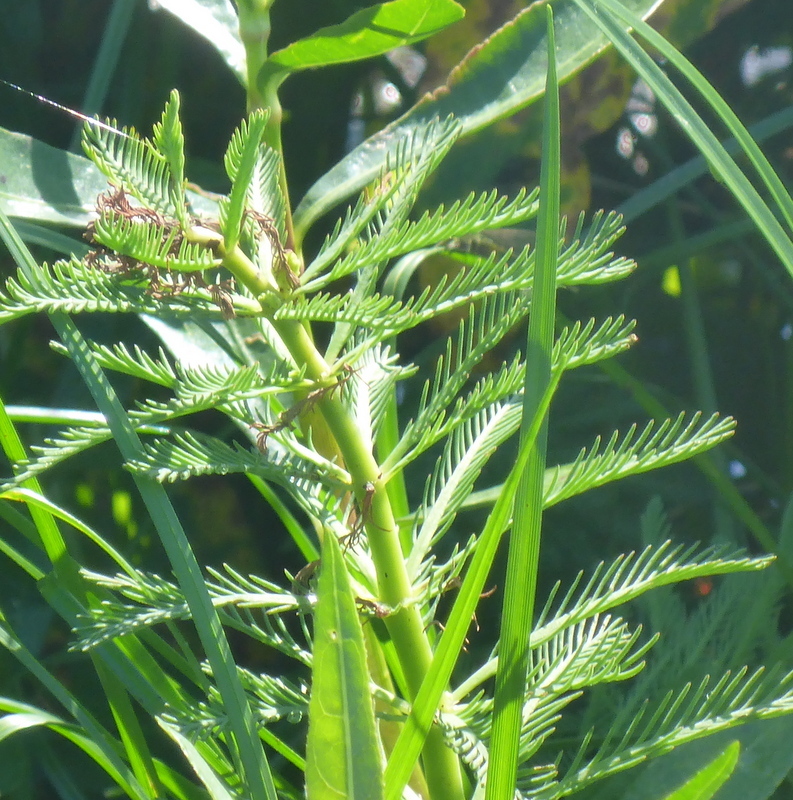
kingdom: Plantae
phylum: Tracheophyta
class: Magnoliopsida
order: Saxifragales
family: Haloragaceae
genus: Myriophyllum
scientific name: Myriophyllum aquaticum
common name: Parrot's feather
